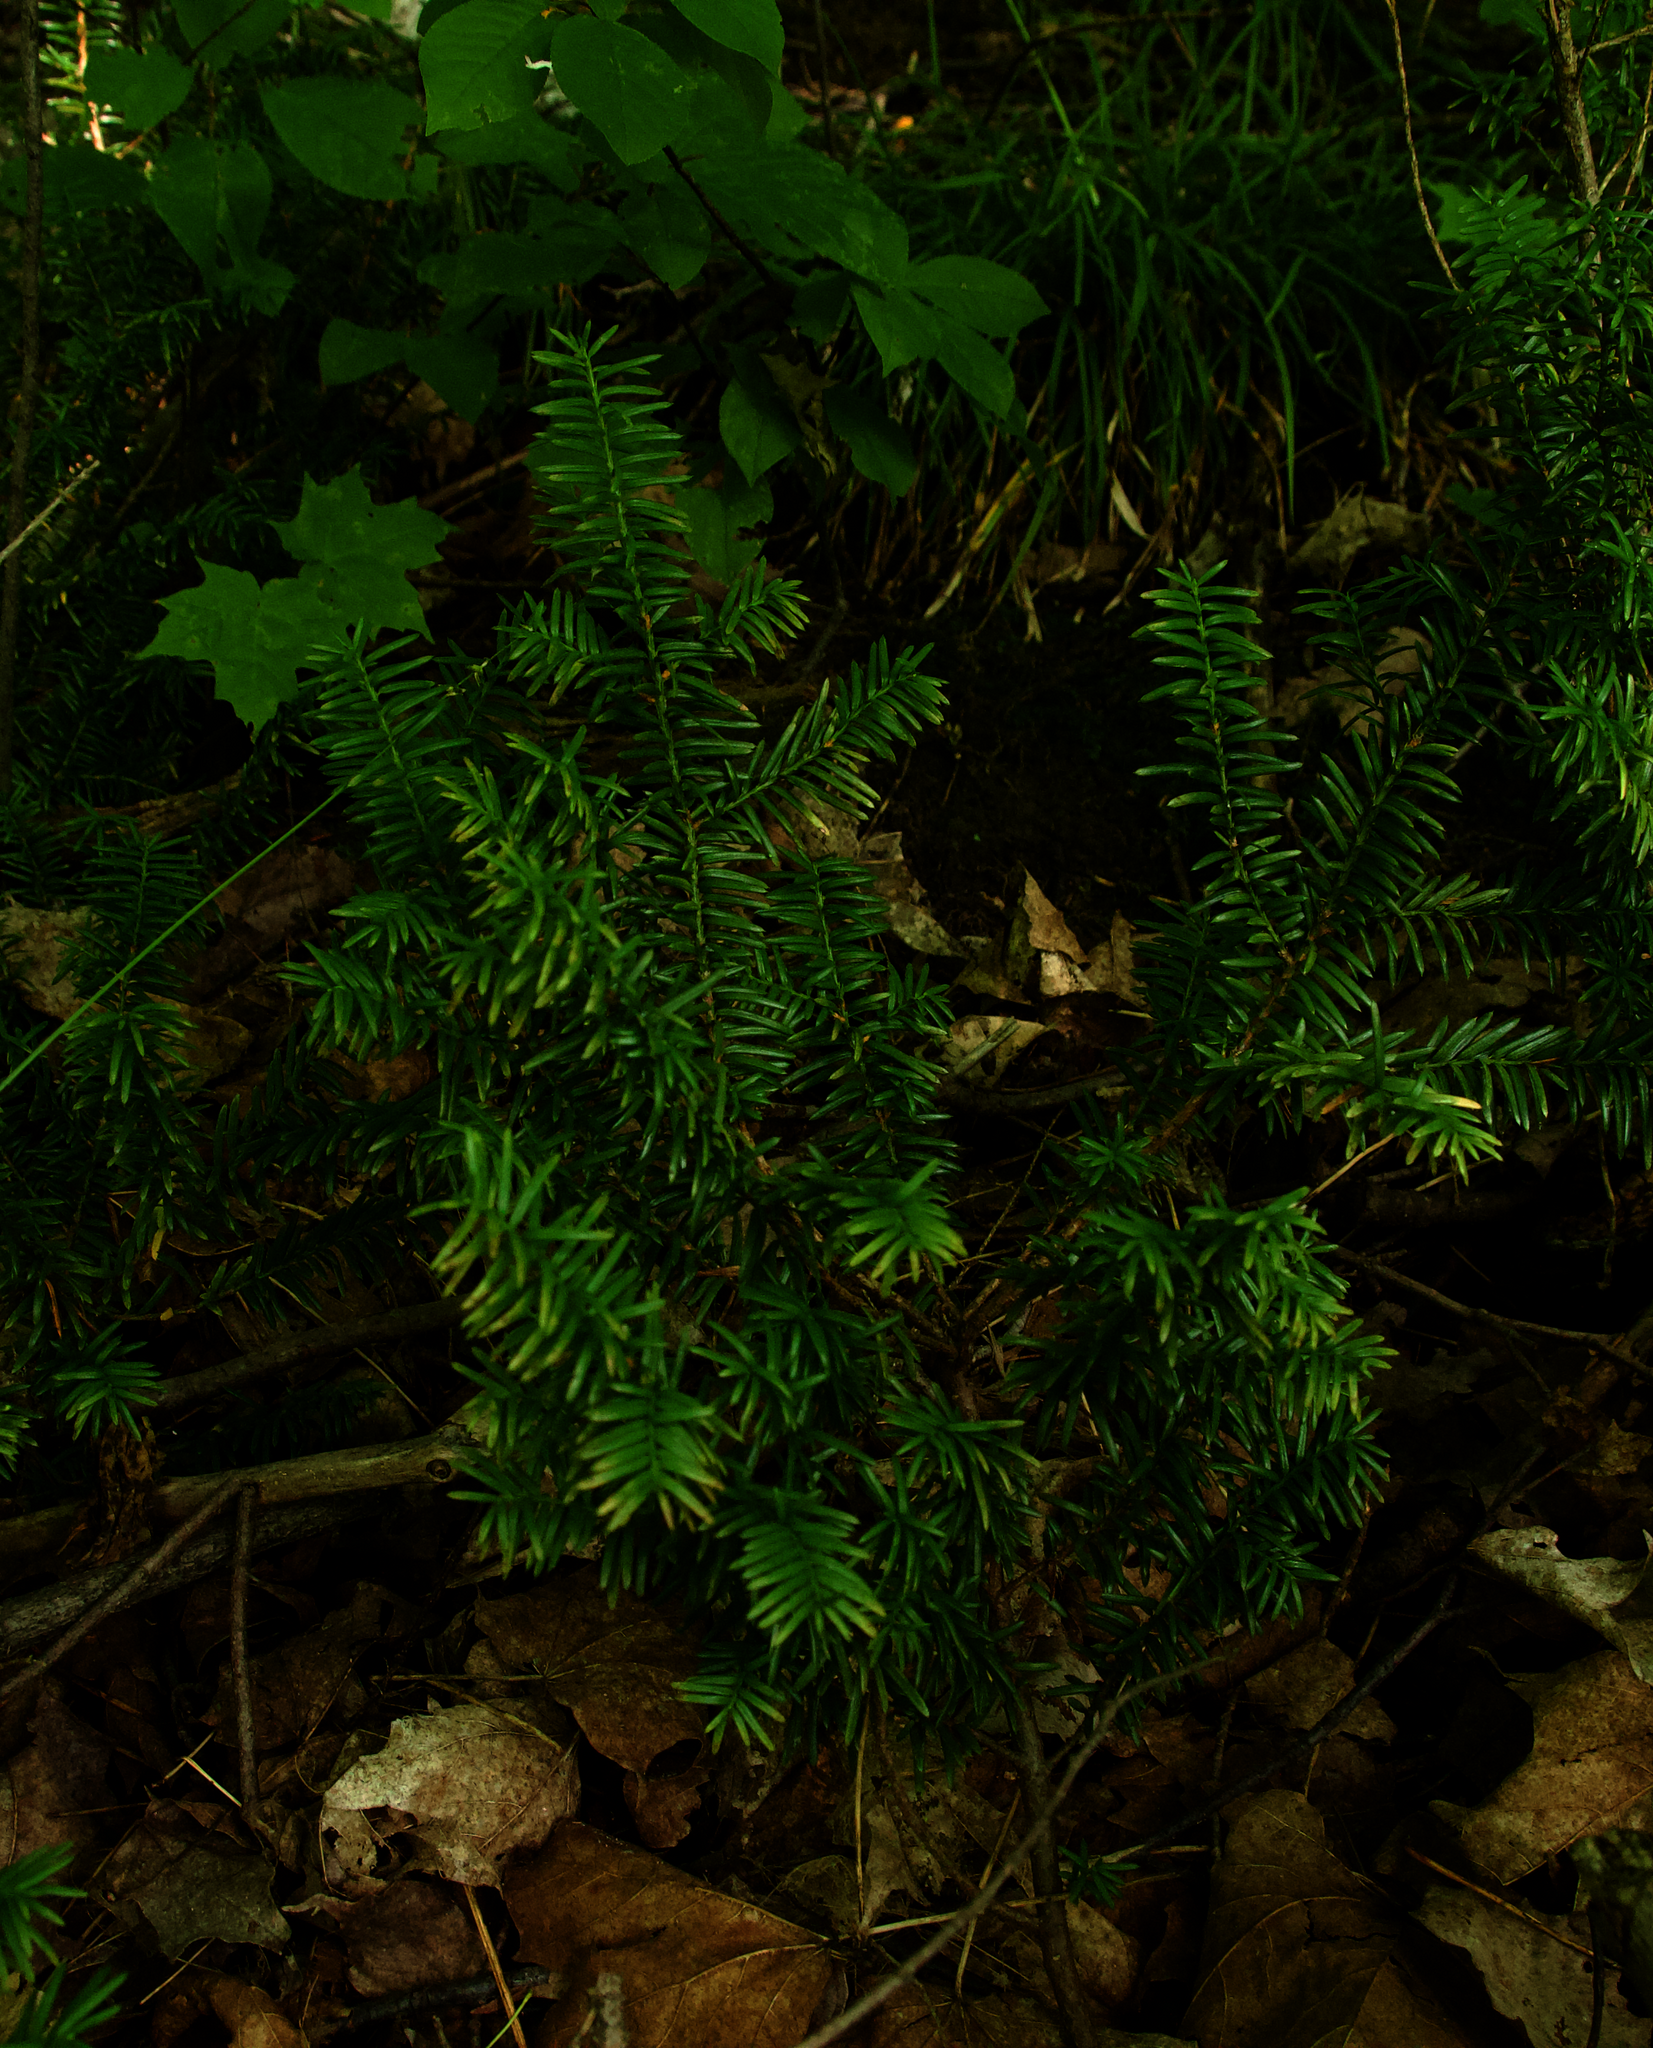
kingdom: Plantae
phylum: Tracheophyta
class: Pinopsida
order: Pinales
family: Taxaceae
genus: Taxus
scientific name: Taxus canadensis
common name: American yew
